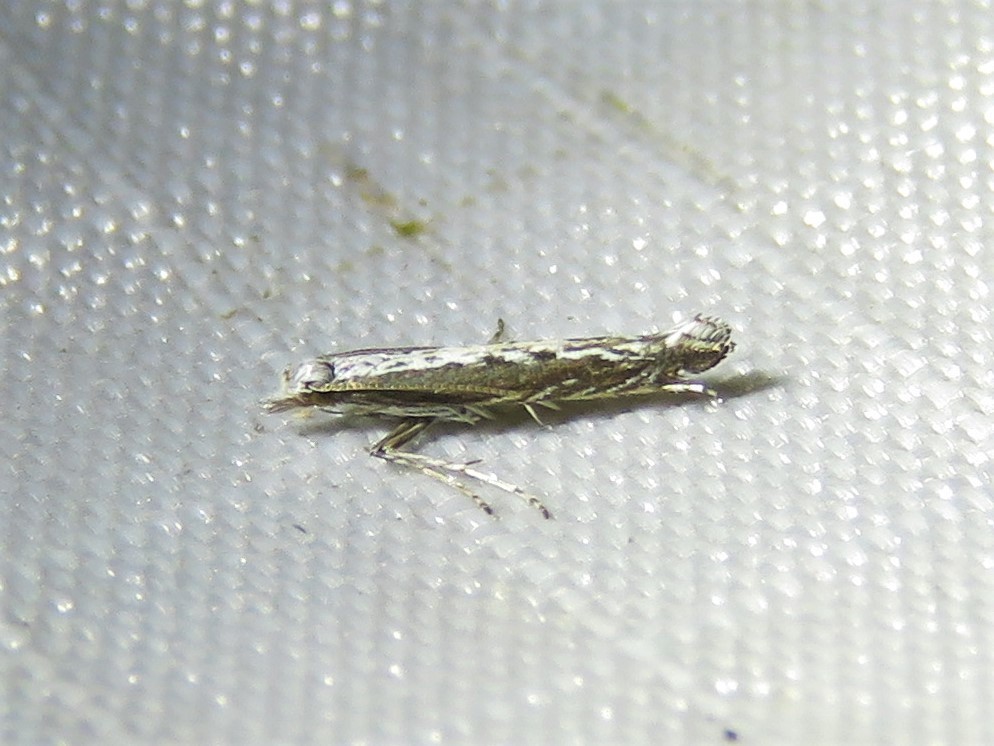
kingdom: Plantae
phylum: Rhodophyta
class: Florideophyceae
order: Gracilariales
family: Gracilariaceae
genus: Gracilaria
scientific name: Gracilaria
